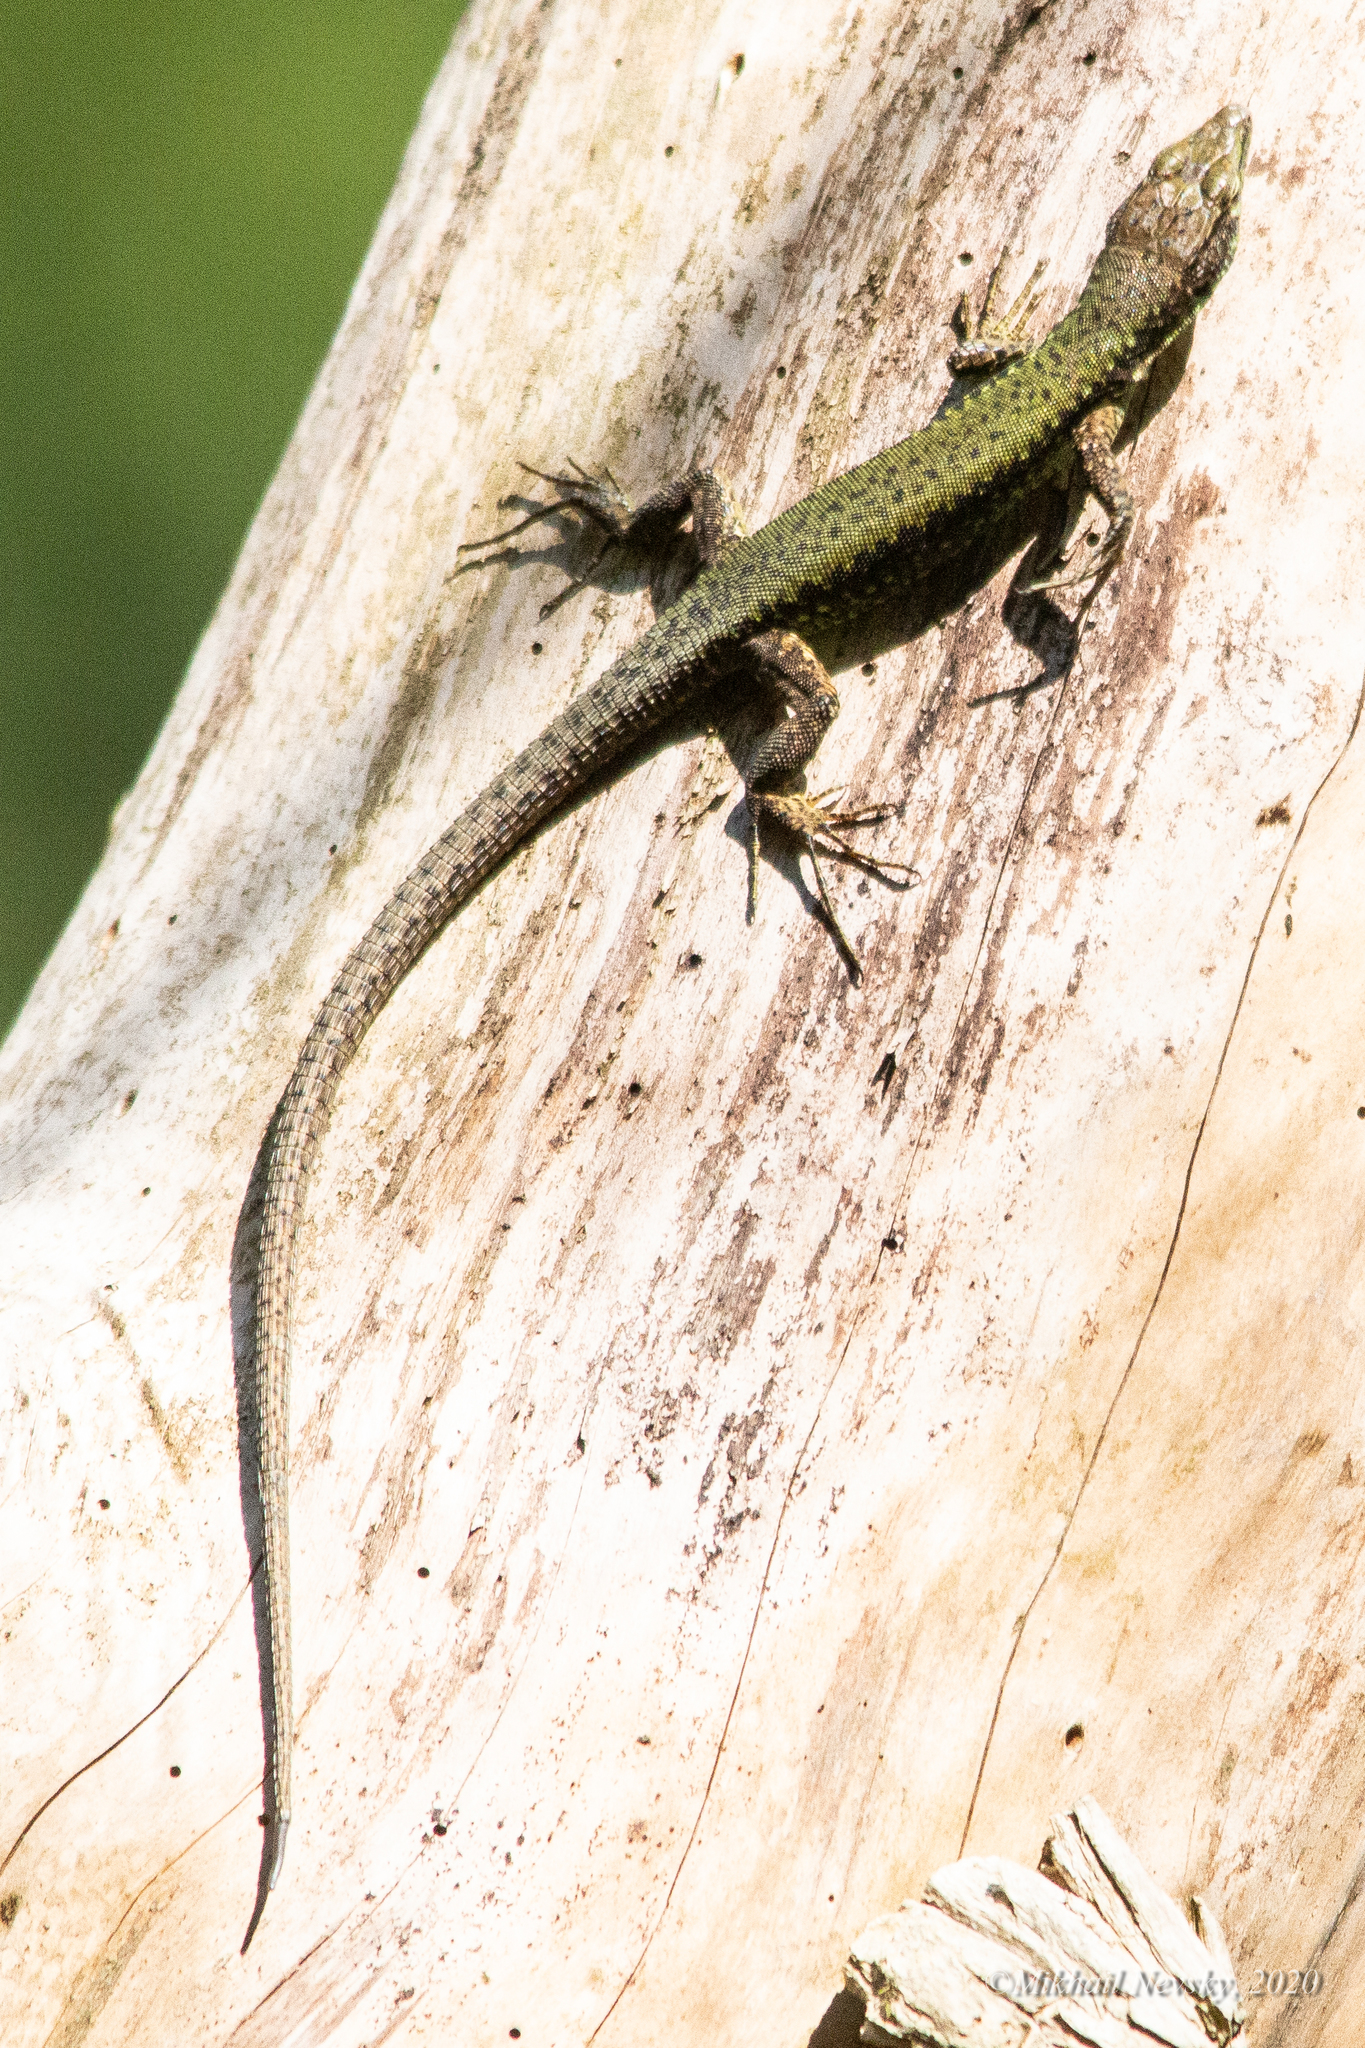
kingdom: Animalia
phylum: Chordata
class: Squamata
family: Lacertidae
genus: Darevskia
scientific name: Darevskia brauneri
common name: Brauner's rock lizard
